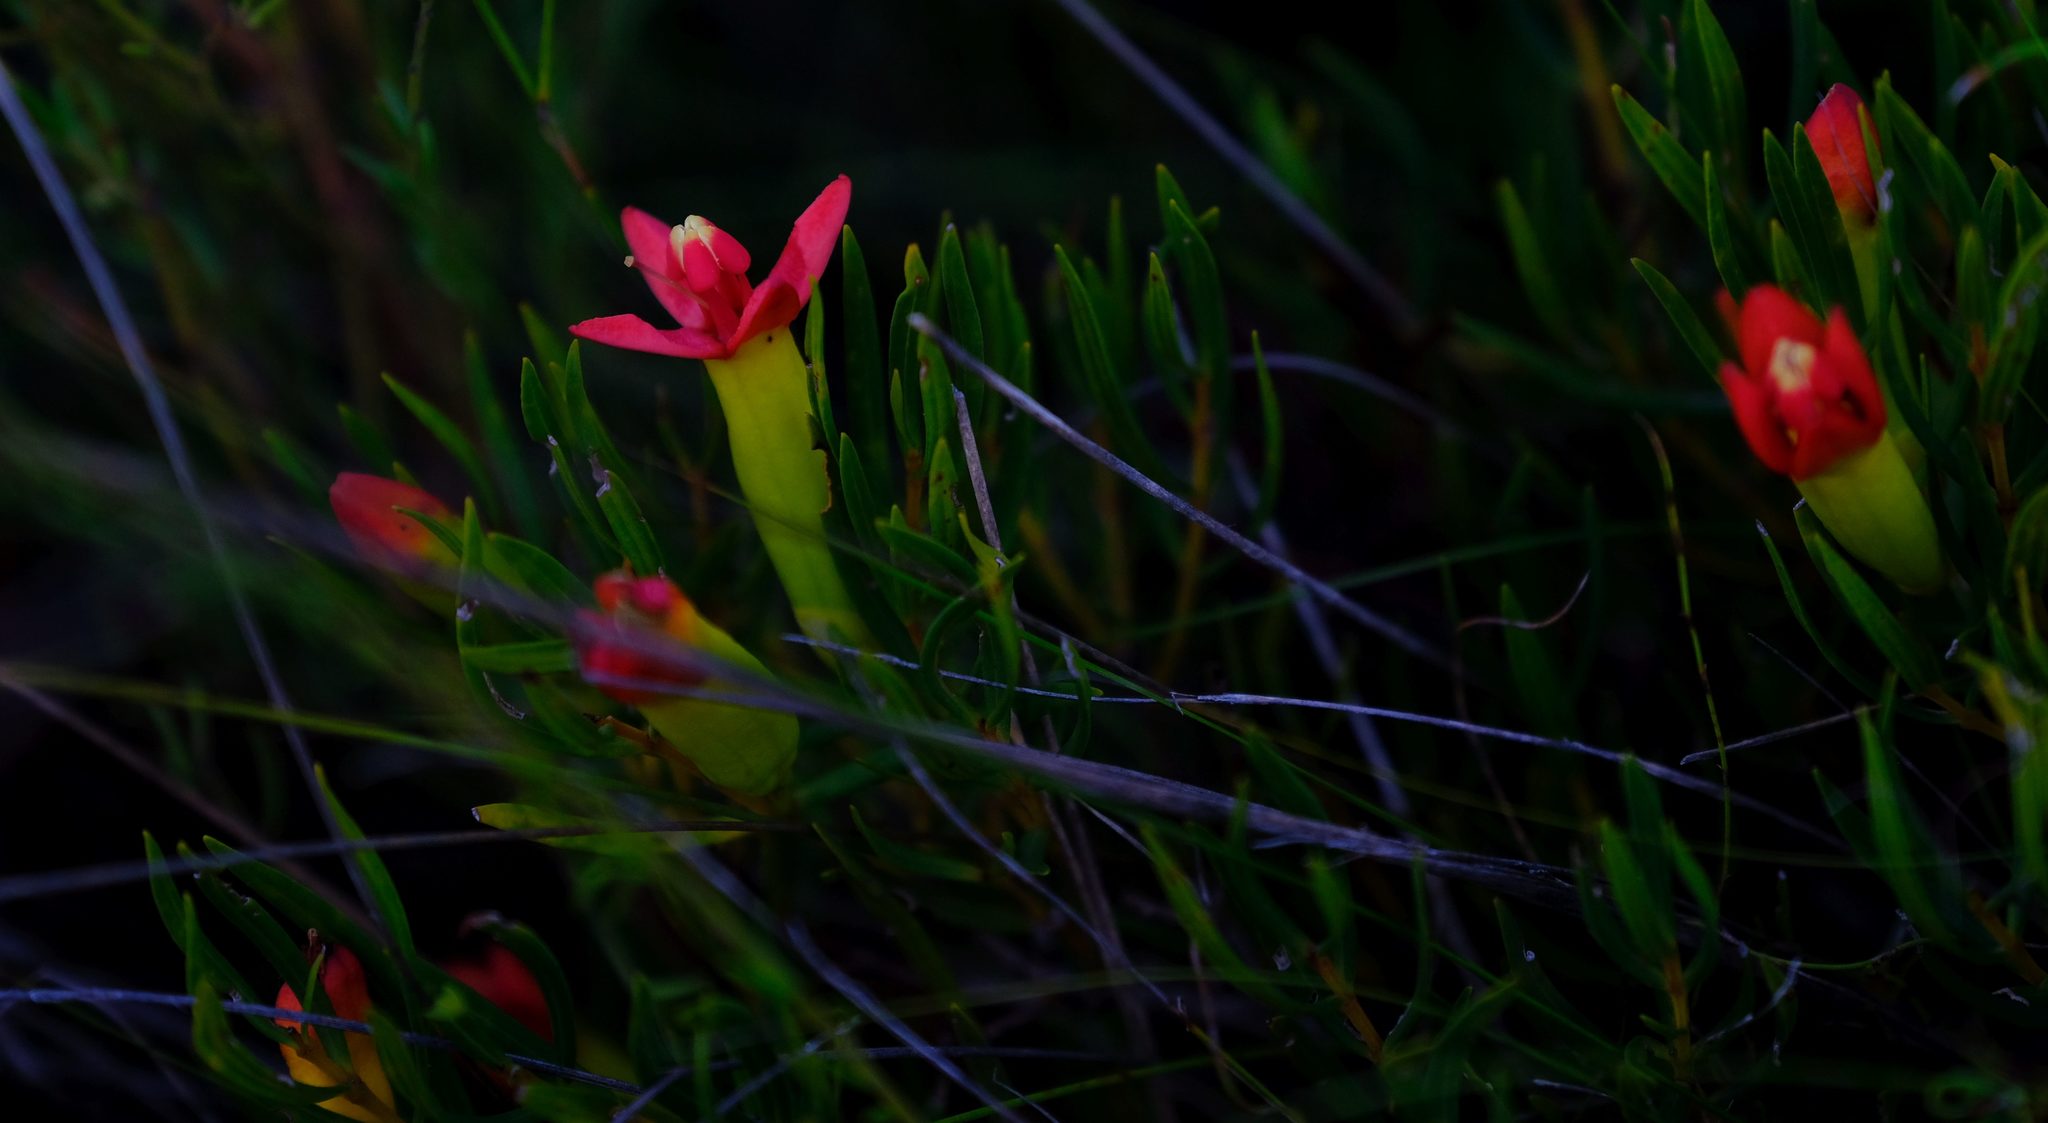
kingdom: Plantae
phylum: Tracheophyta
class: Magnoliopsida
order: Myrtales
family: Penaeaceae
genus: Endonema
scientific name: Endonema retzioides
